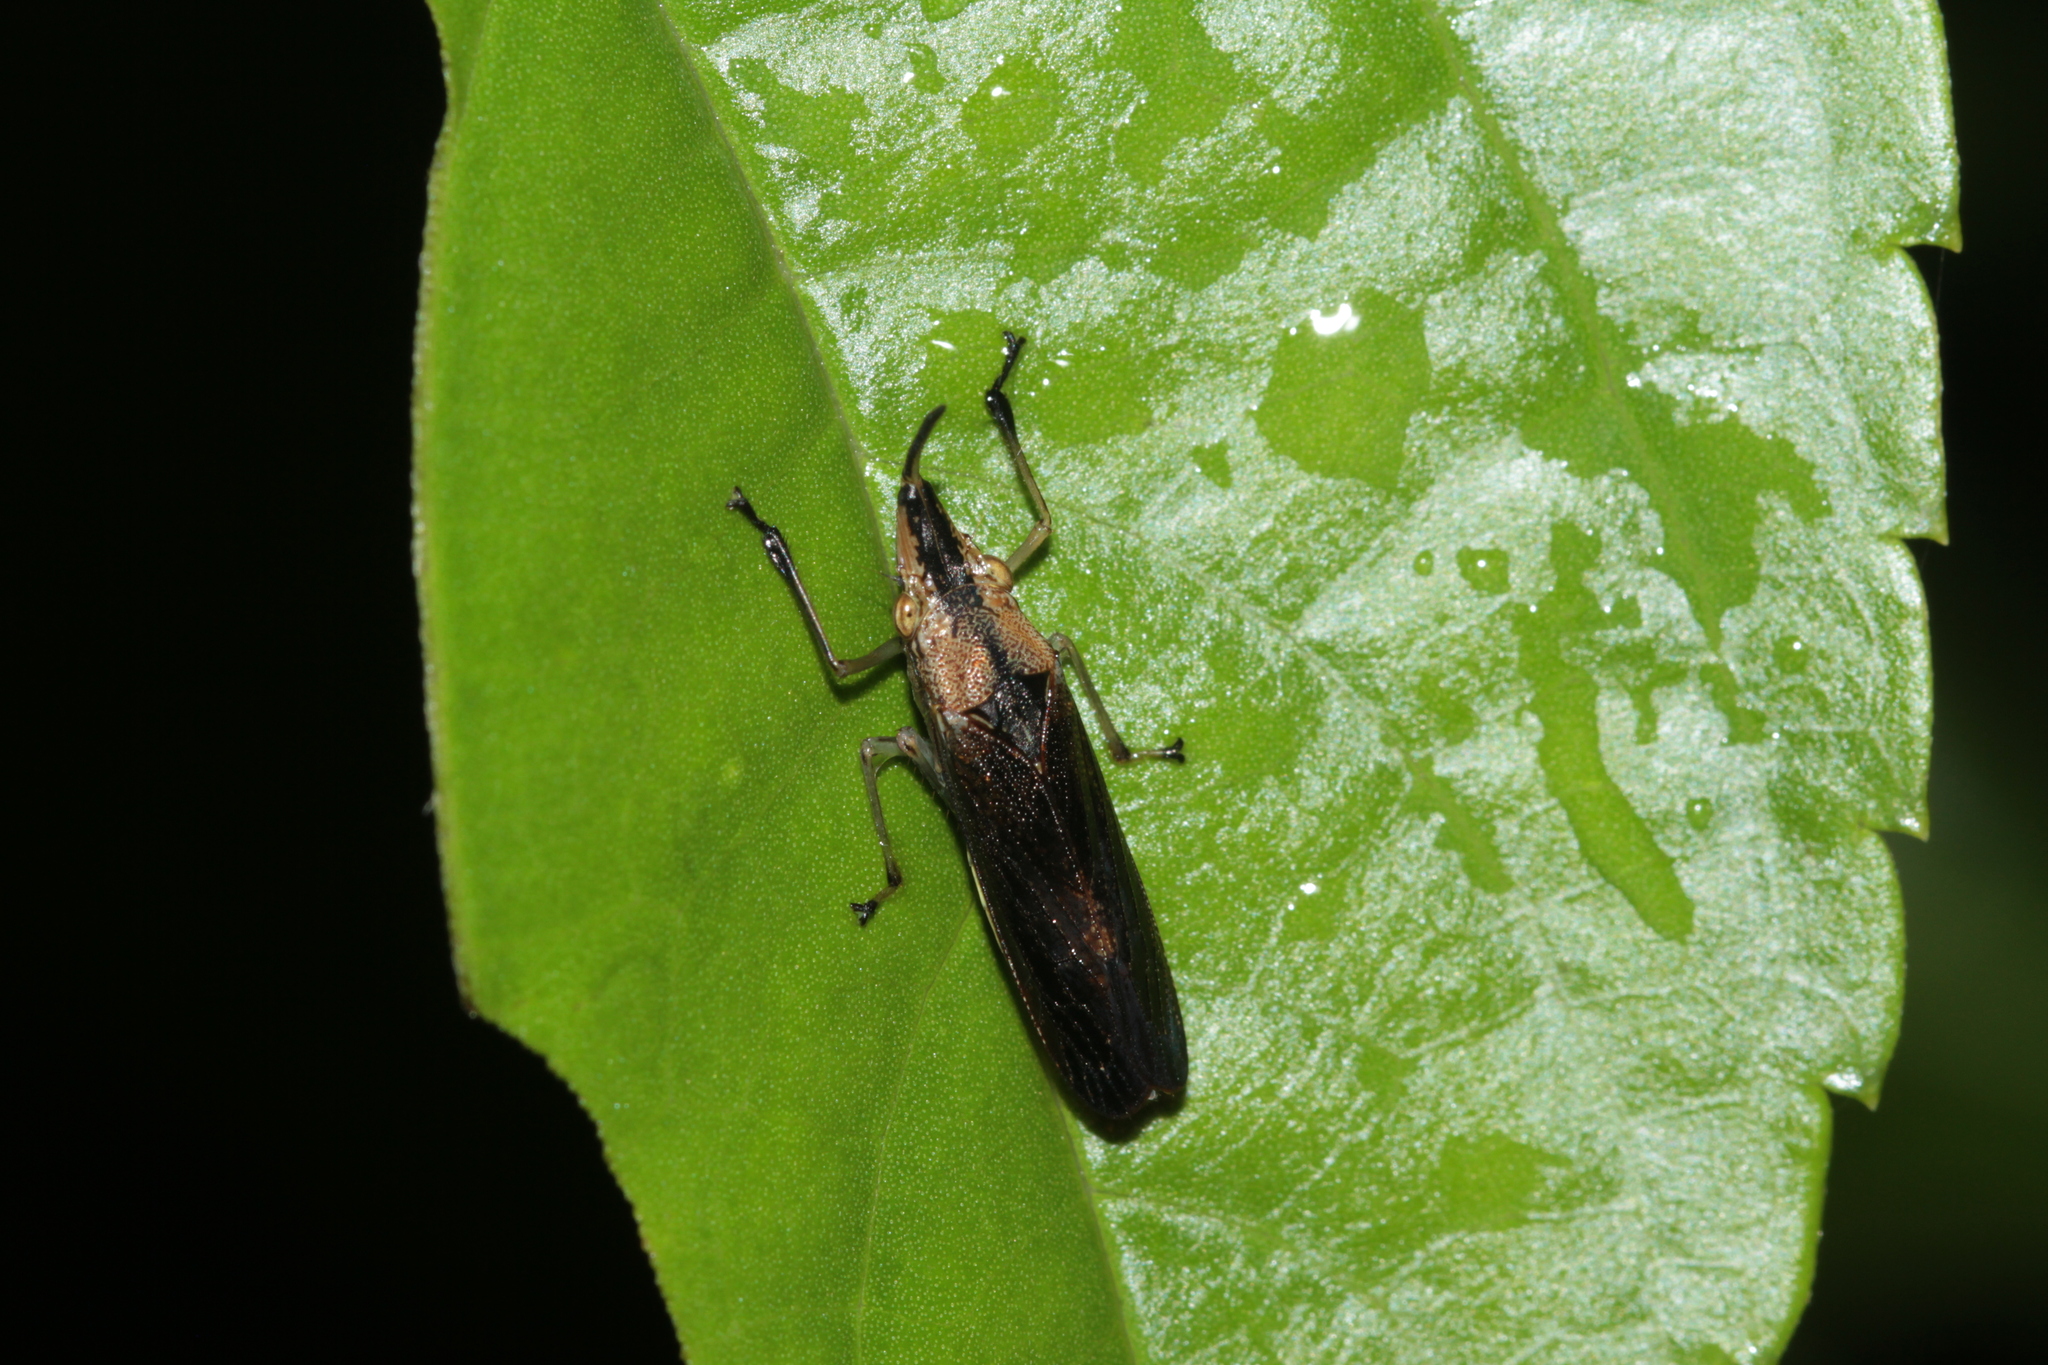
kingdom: Animalia
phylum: Arthropoda
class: Insecta
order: Hemiptera
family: Cicadellidae
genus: Raphirhinus
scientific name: Raphirhinus phosphoreus
